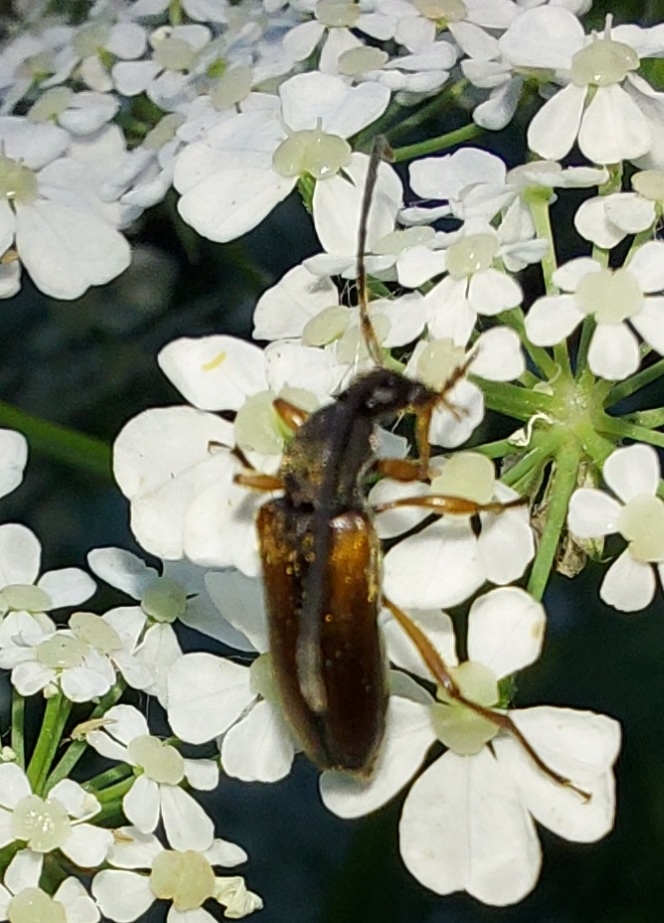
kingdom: Animalia
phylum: Arthropoda
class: Insecta
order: Coleoptera
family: Cerambycidae
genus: Alosterna
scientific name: Alosterna tabacicolor
